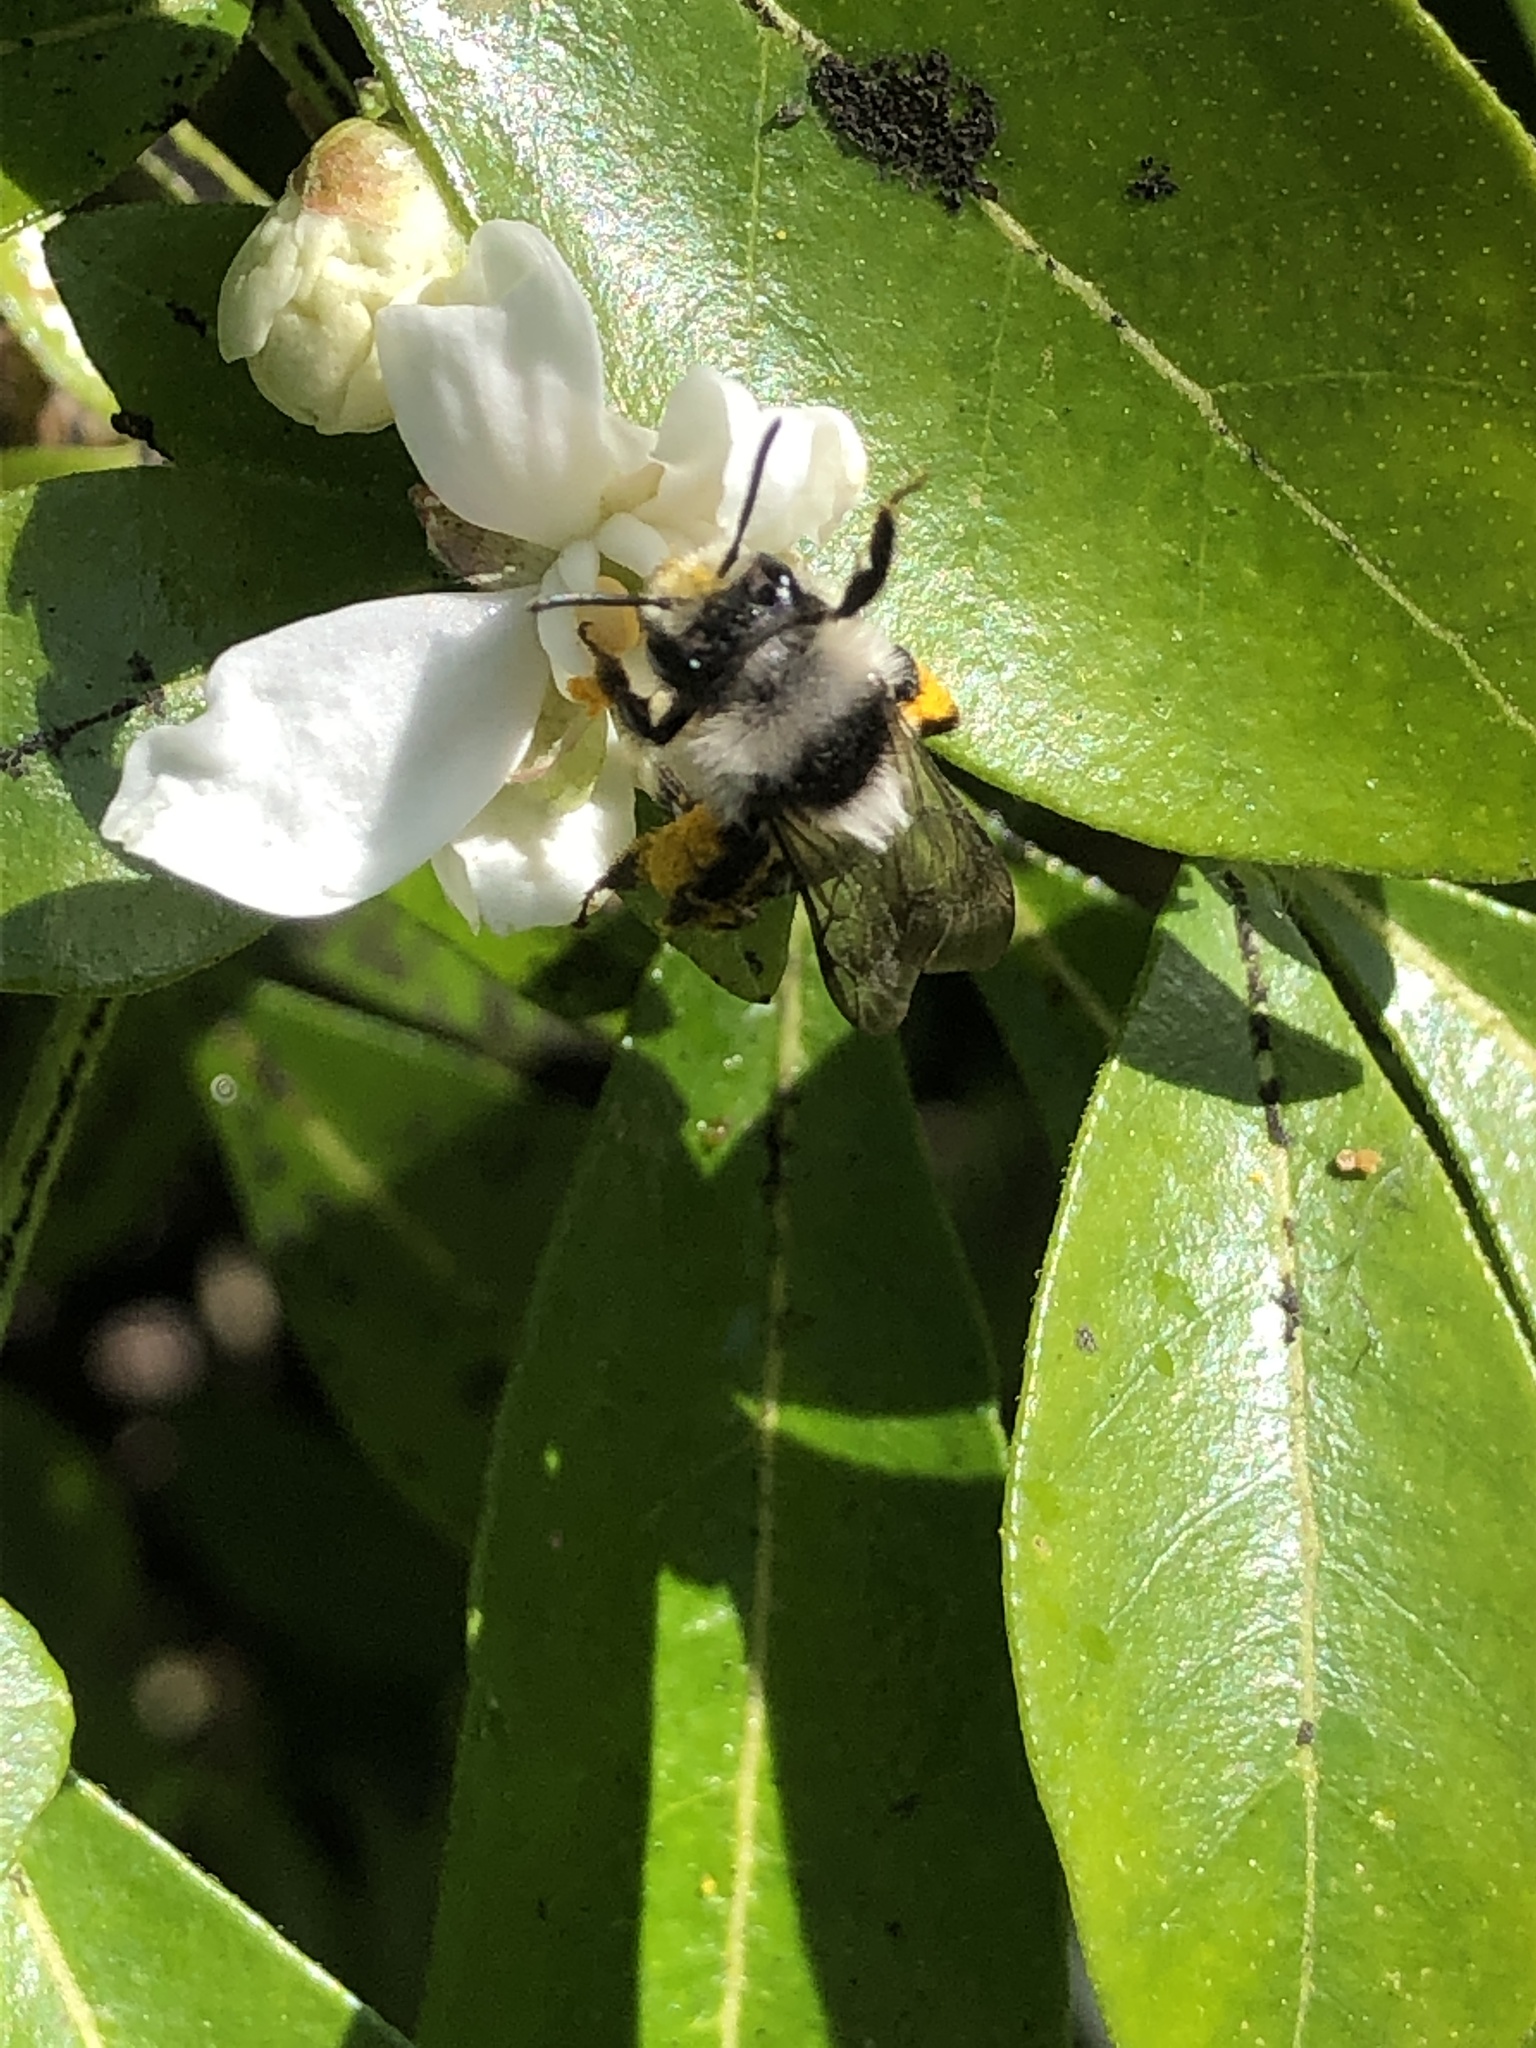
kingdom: Animalia
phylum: Arthropoda
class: Insecta
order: Hymenoptera
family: Andrenidae
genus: Andrena
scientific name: Andrena cineraria
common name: Ashy mining bee
